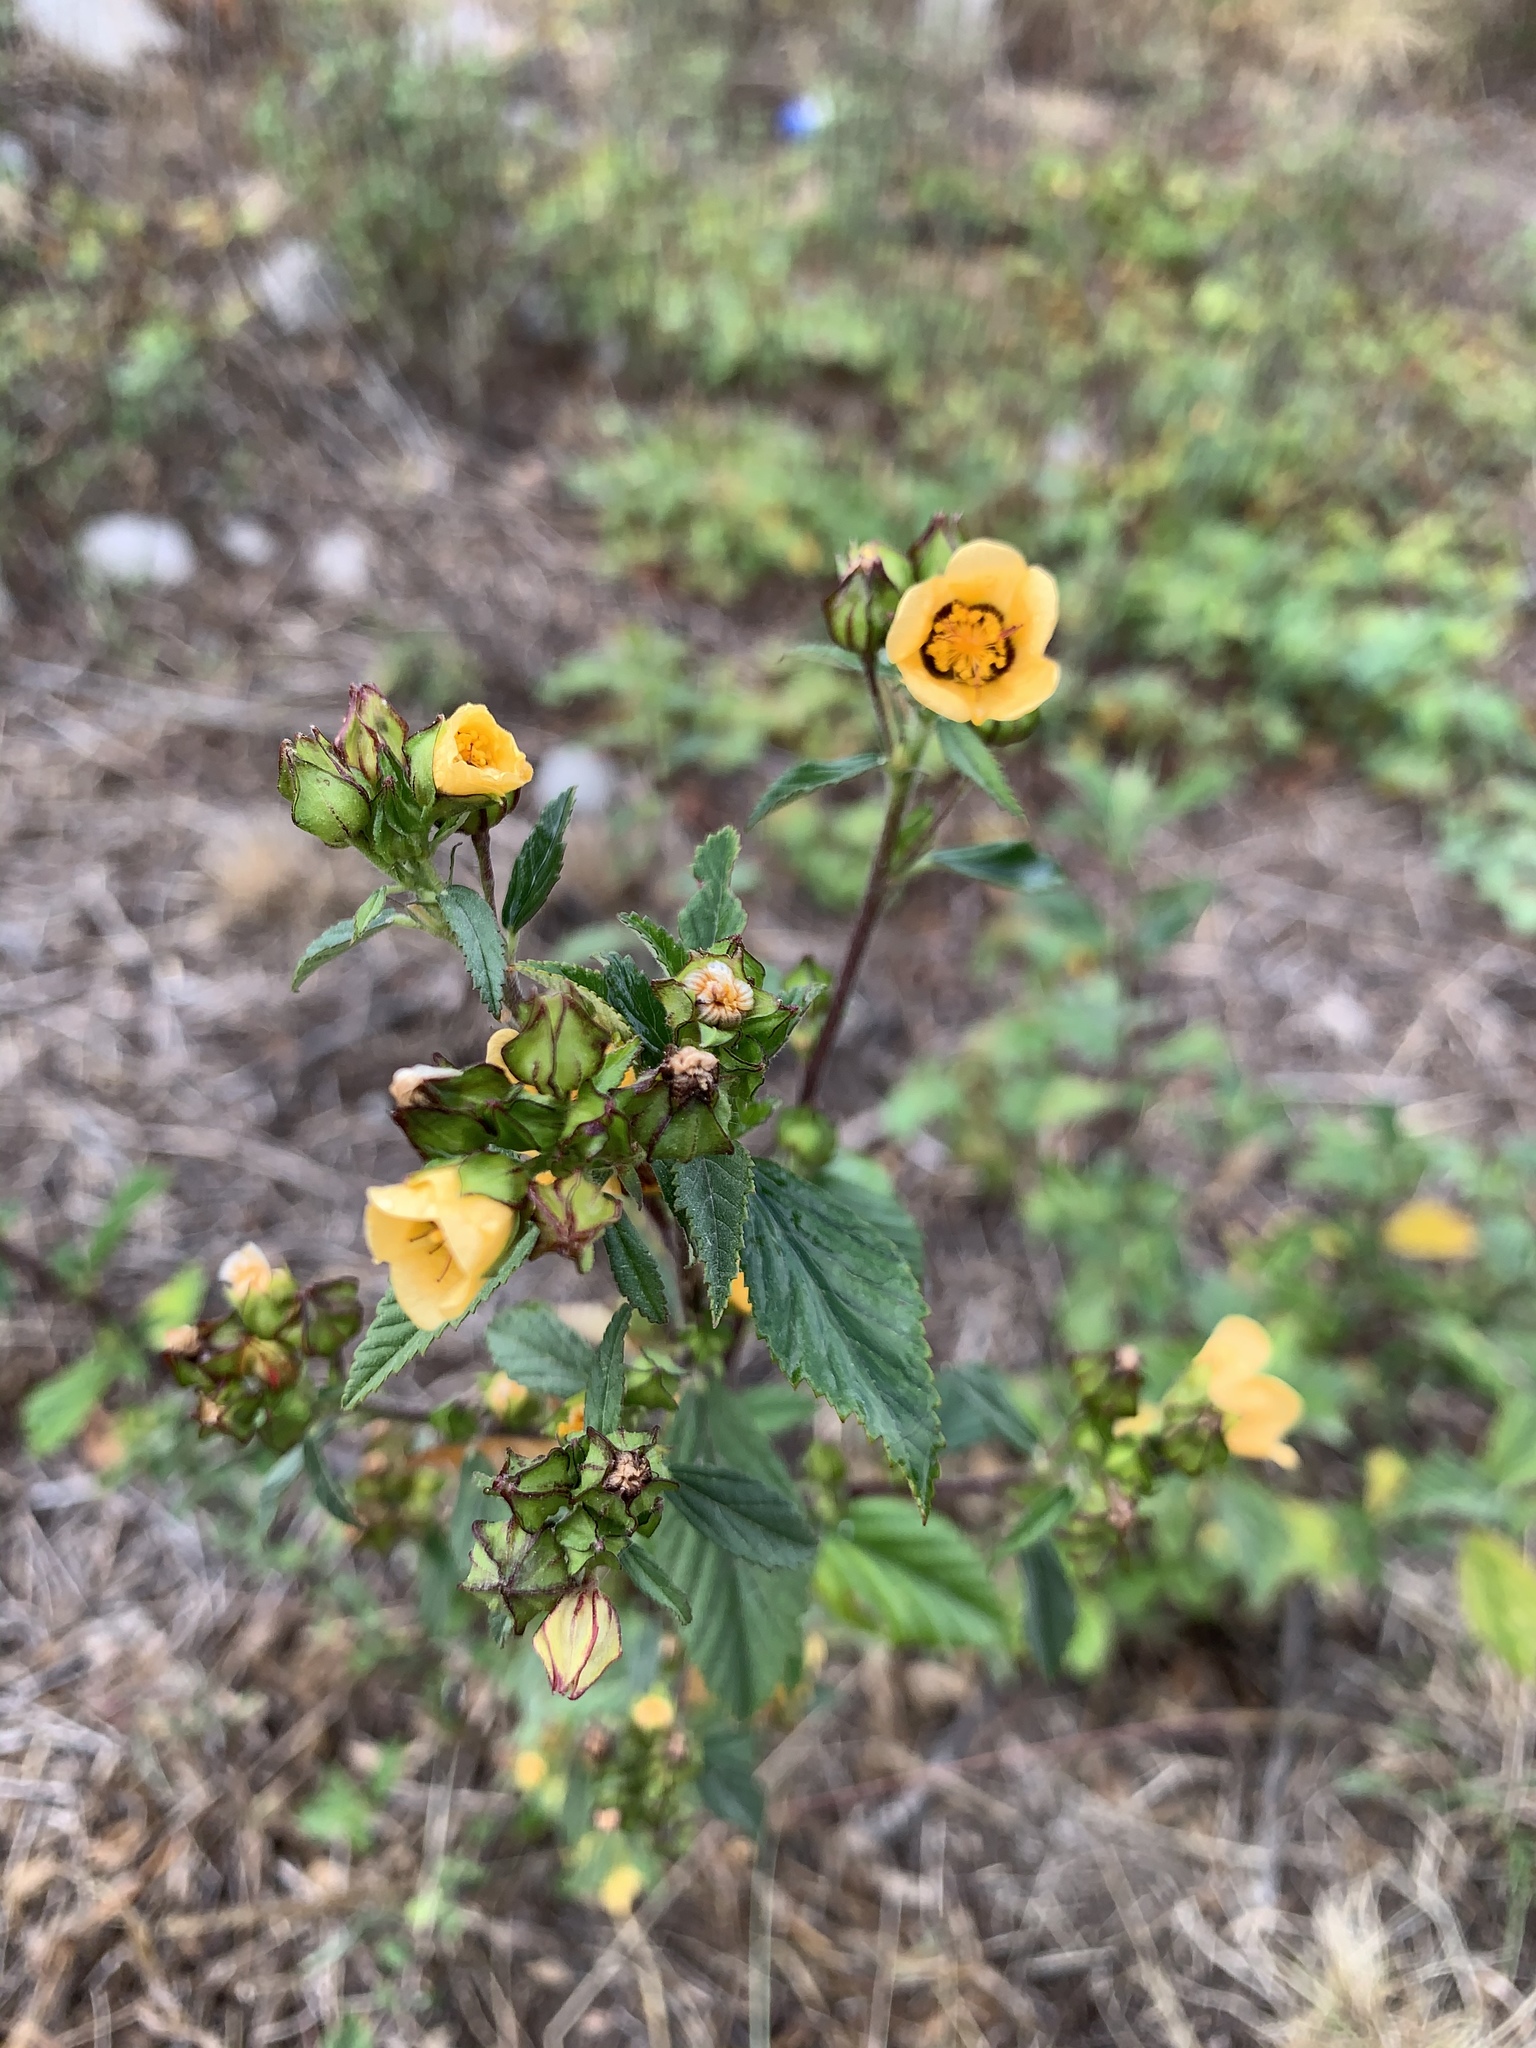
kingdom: Plantae
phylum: Tracheophyta
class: Magnoliopsida
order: Malvales
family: Malvaceae
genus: Sida
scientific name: Sida rhombifolia
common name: Queensland-hemp
